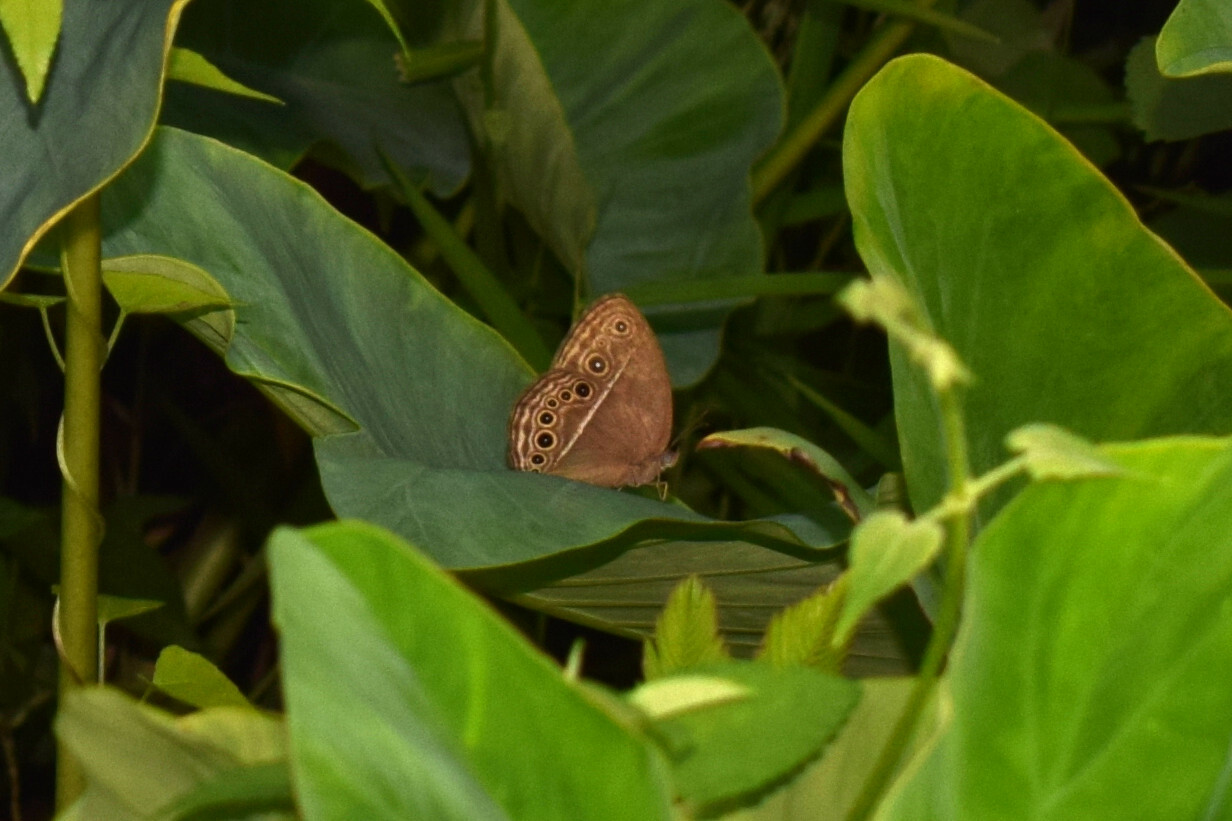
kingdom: Animalia
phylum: Arthropoda
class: Insecta
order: Lepidoptera
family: Nymphalidae
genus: Mycalesis
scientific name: Mycalesis perseus
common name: Dingy bushbrown
